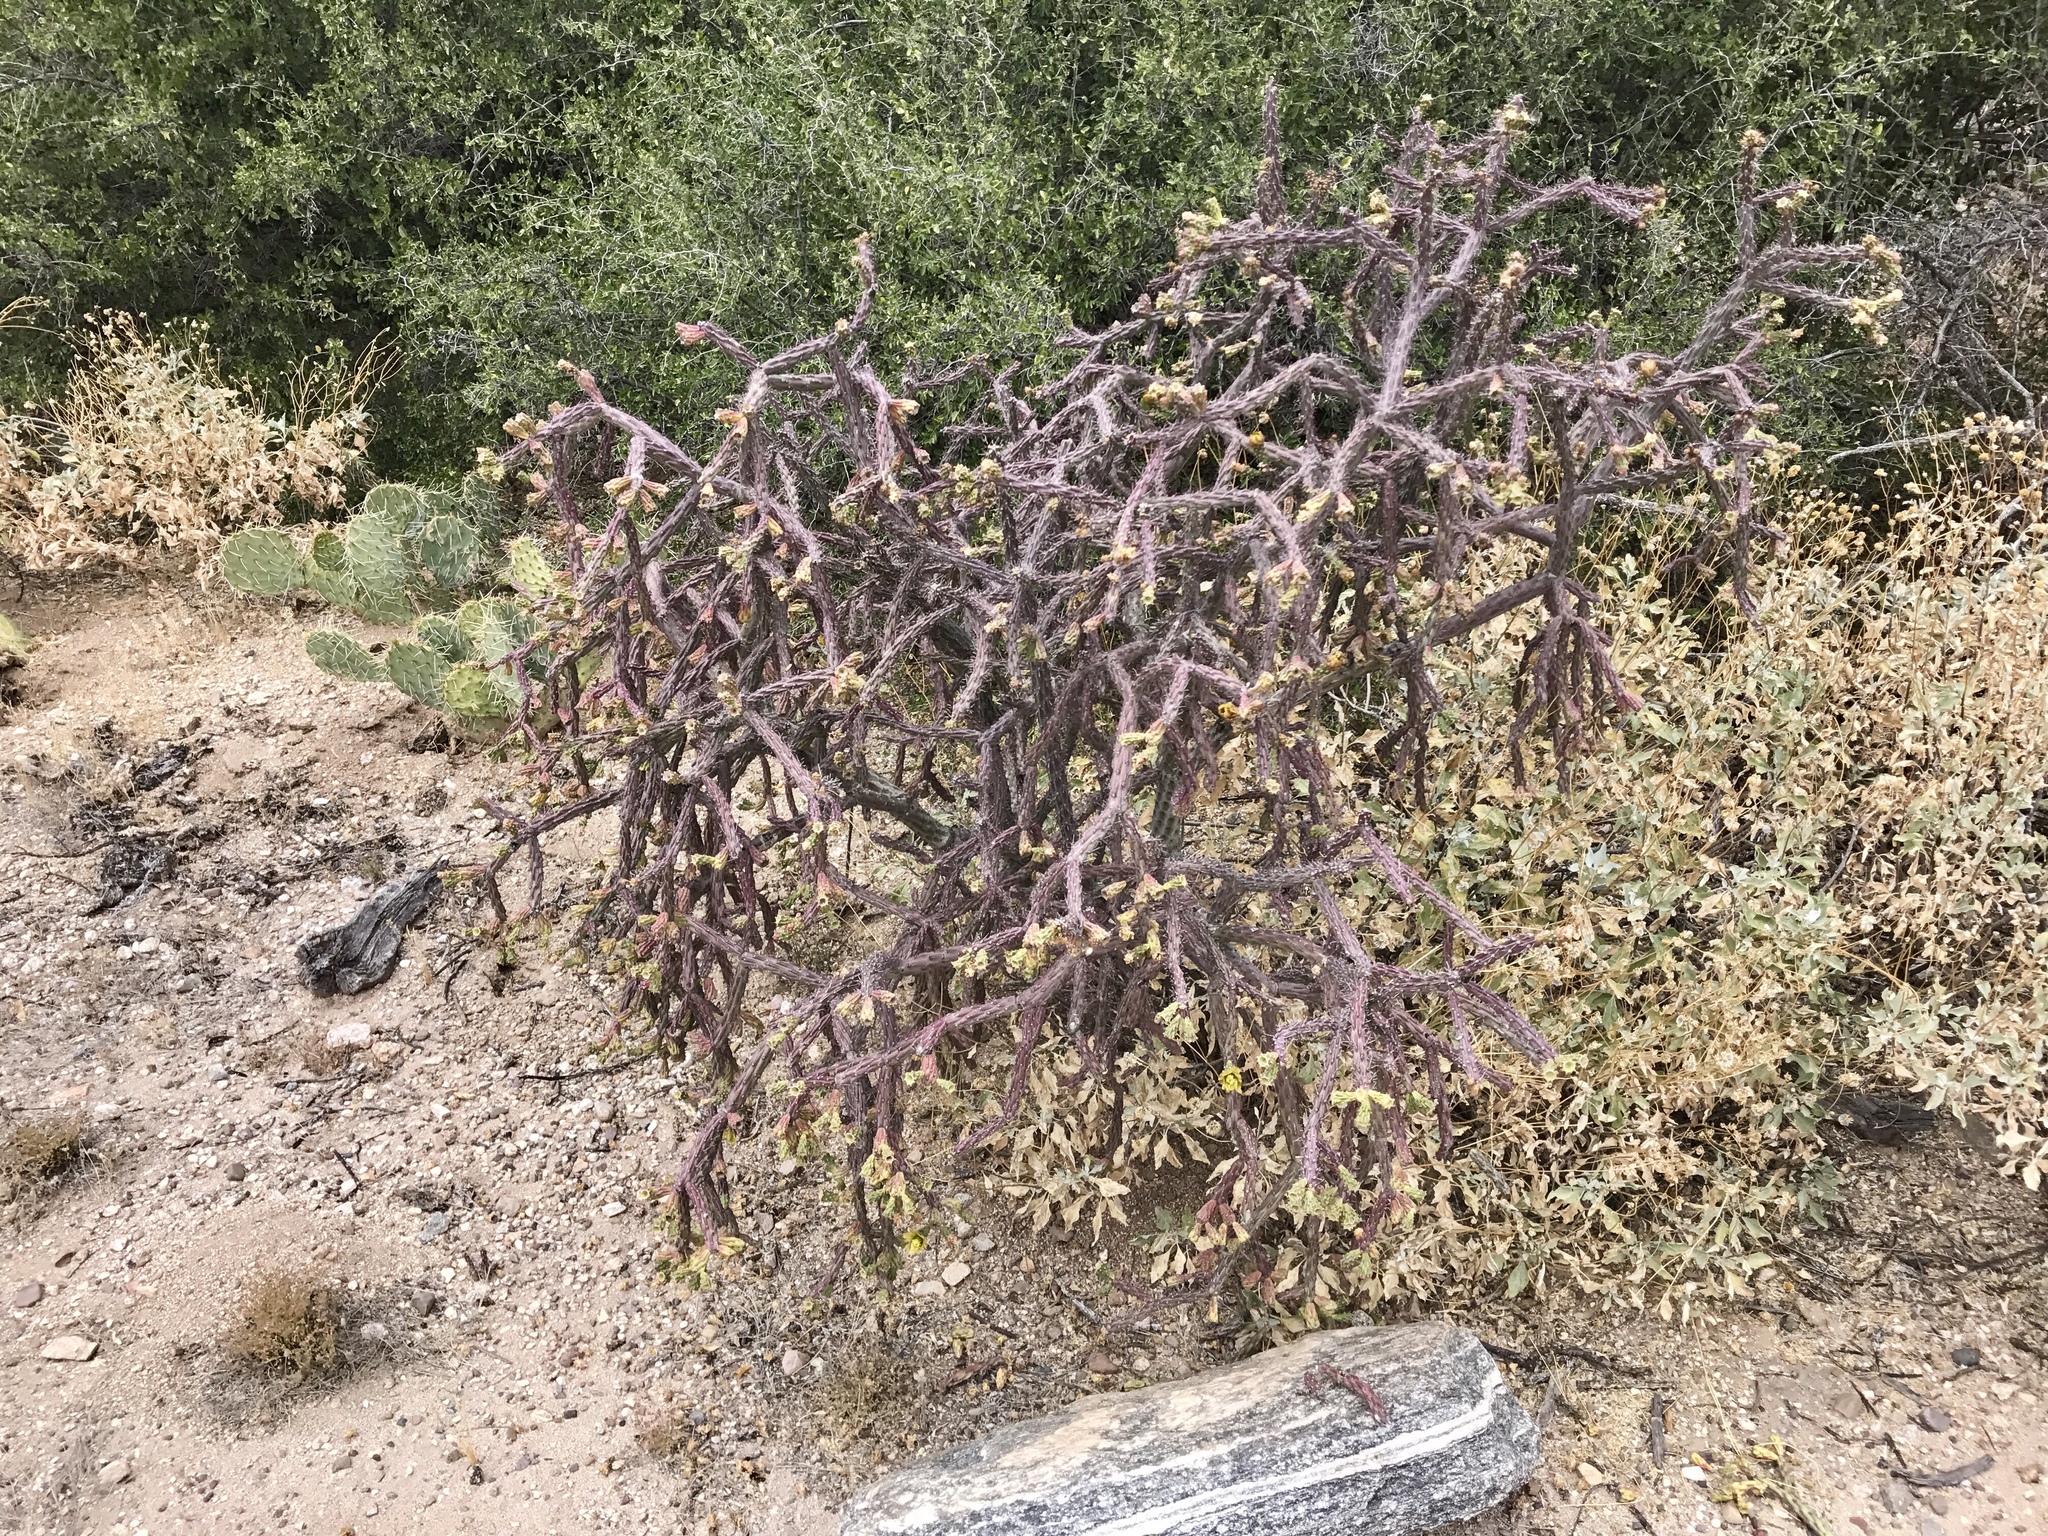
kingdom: Plantae
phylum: Tracheophyta
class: Magnoliopsida
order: Caryophyllales
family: Cactaceae
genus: Cylindropuntia
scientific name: Cylindropuntia thurberi
